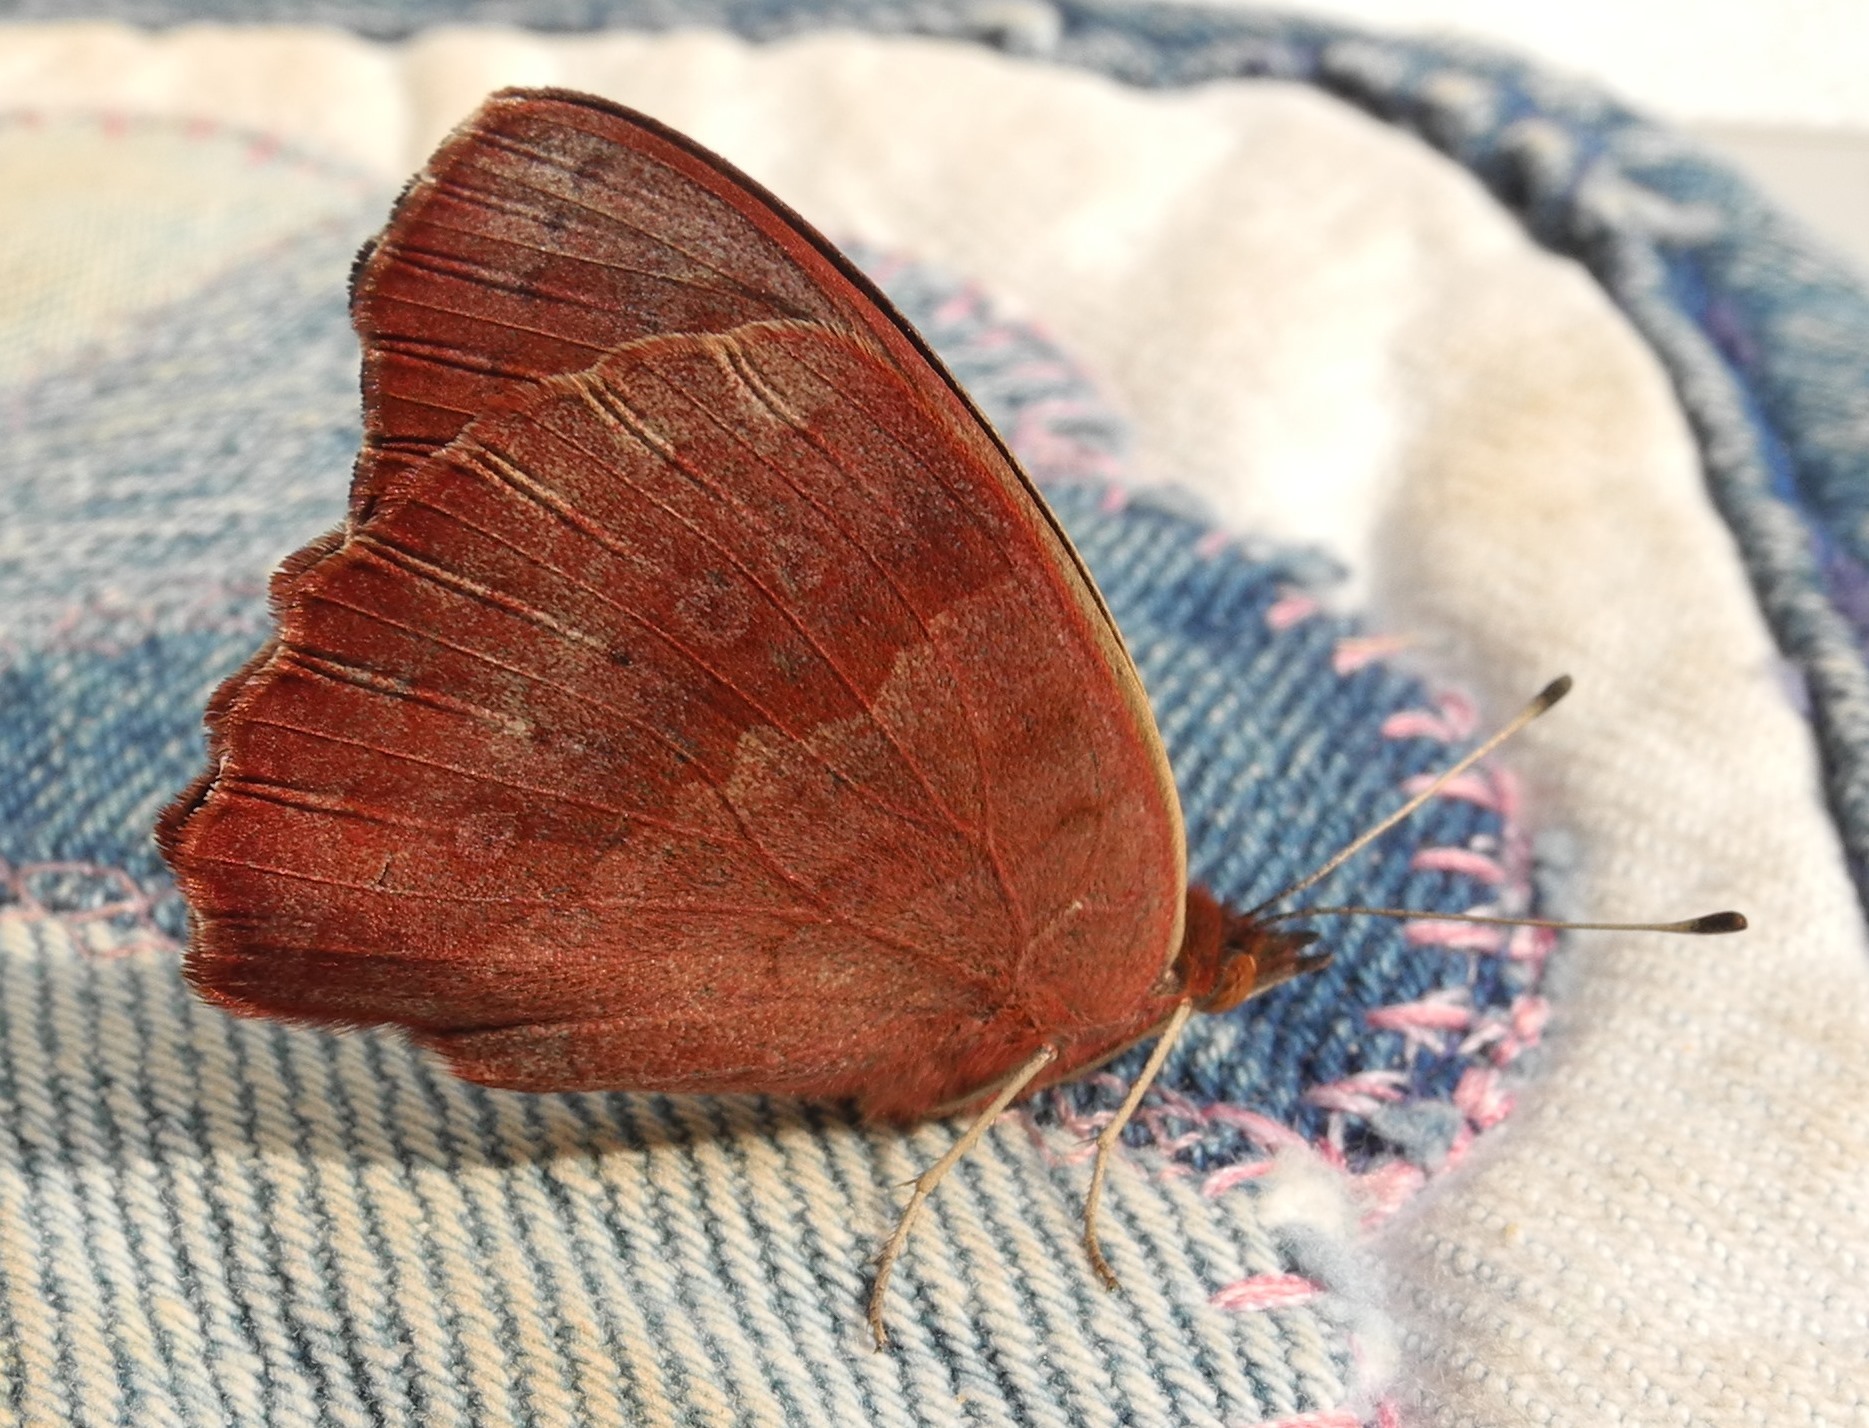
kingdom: Animalia
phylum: Arthropoda
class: Insecta
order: Lepidoptera
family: Nymphalidae
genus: Junonia
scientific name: Junonia coenia
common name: Common buckeye
